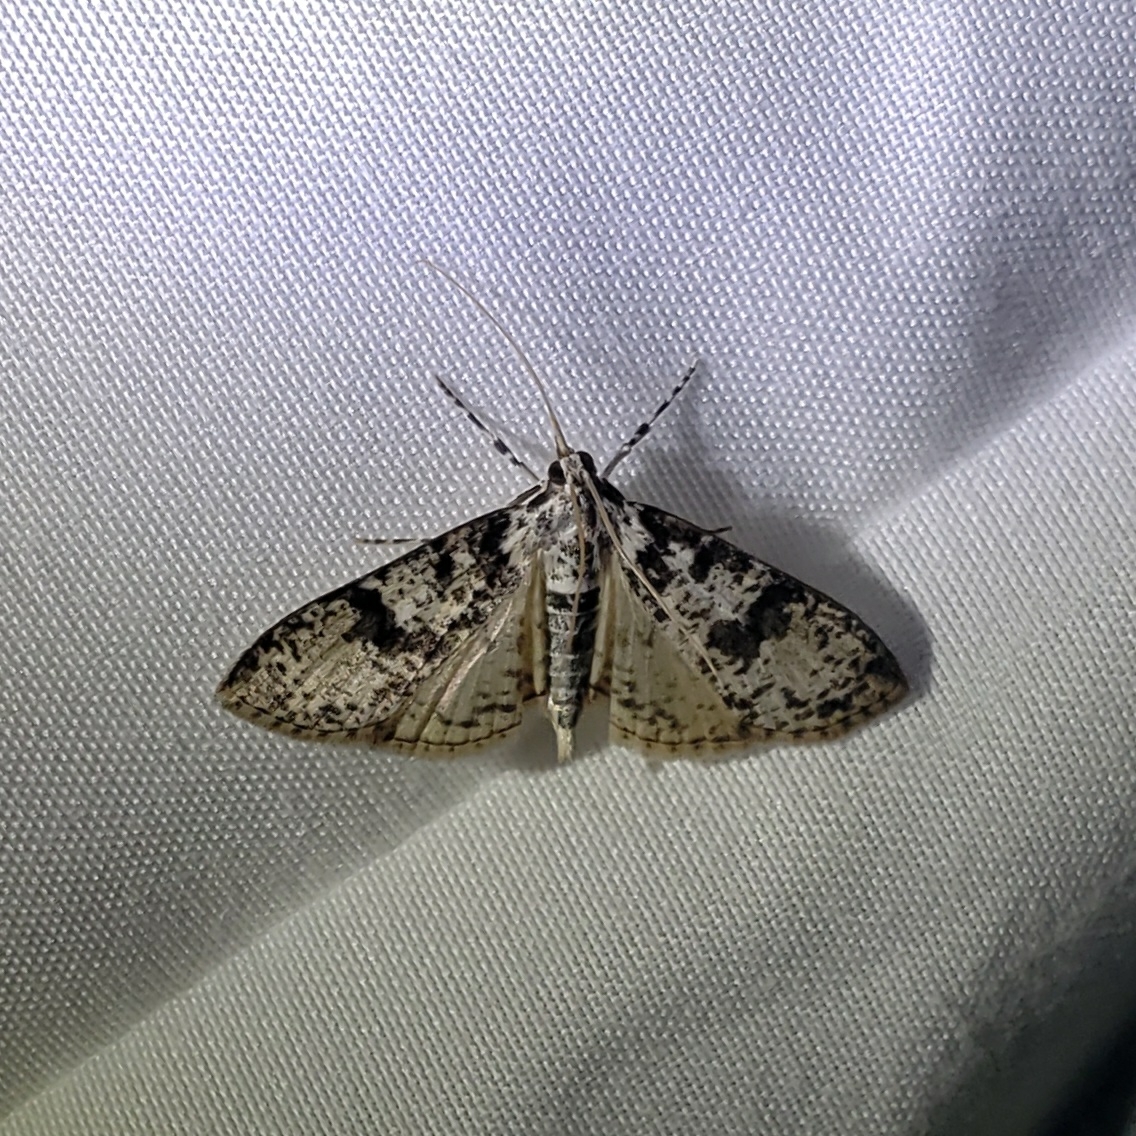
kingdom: Animalia
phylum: Arthropoda
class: Insecta
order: Lepidoptera
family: Crambidae
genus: Palpita
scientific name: Palpita magniferalis
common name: Splendid palpita moth
